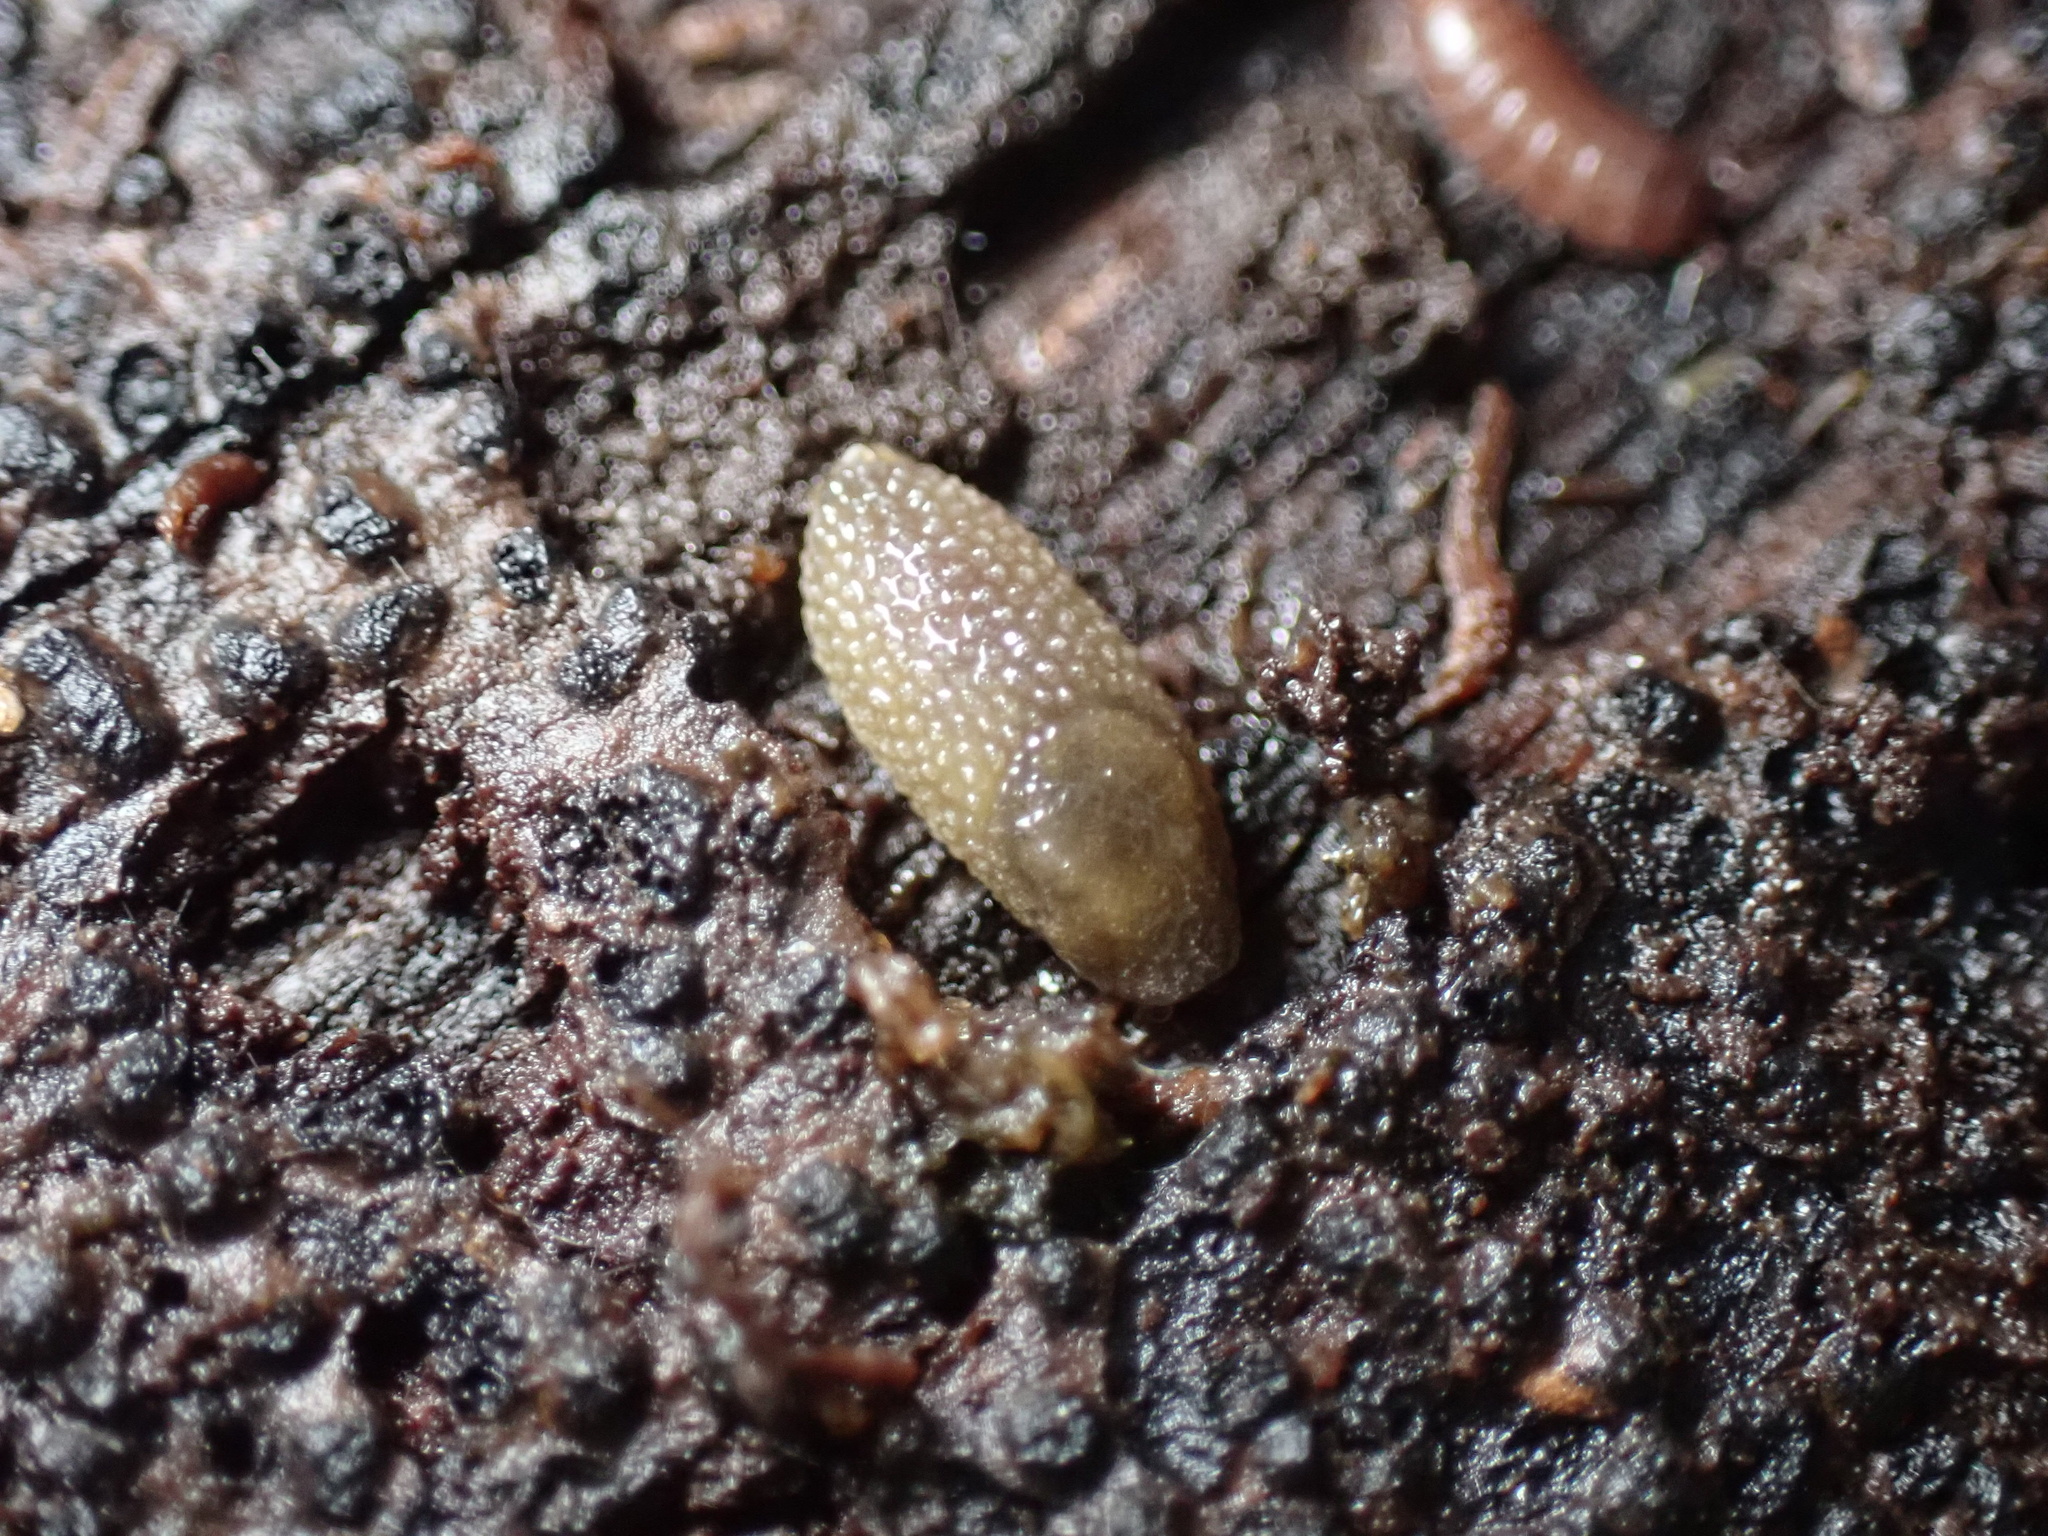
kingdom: Animalia
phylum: Mollusca
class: Gastropoda
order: Stylommatophora
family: Arionidae
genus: Arion
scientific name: Arion intermedius
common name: Hedgehog slug
